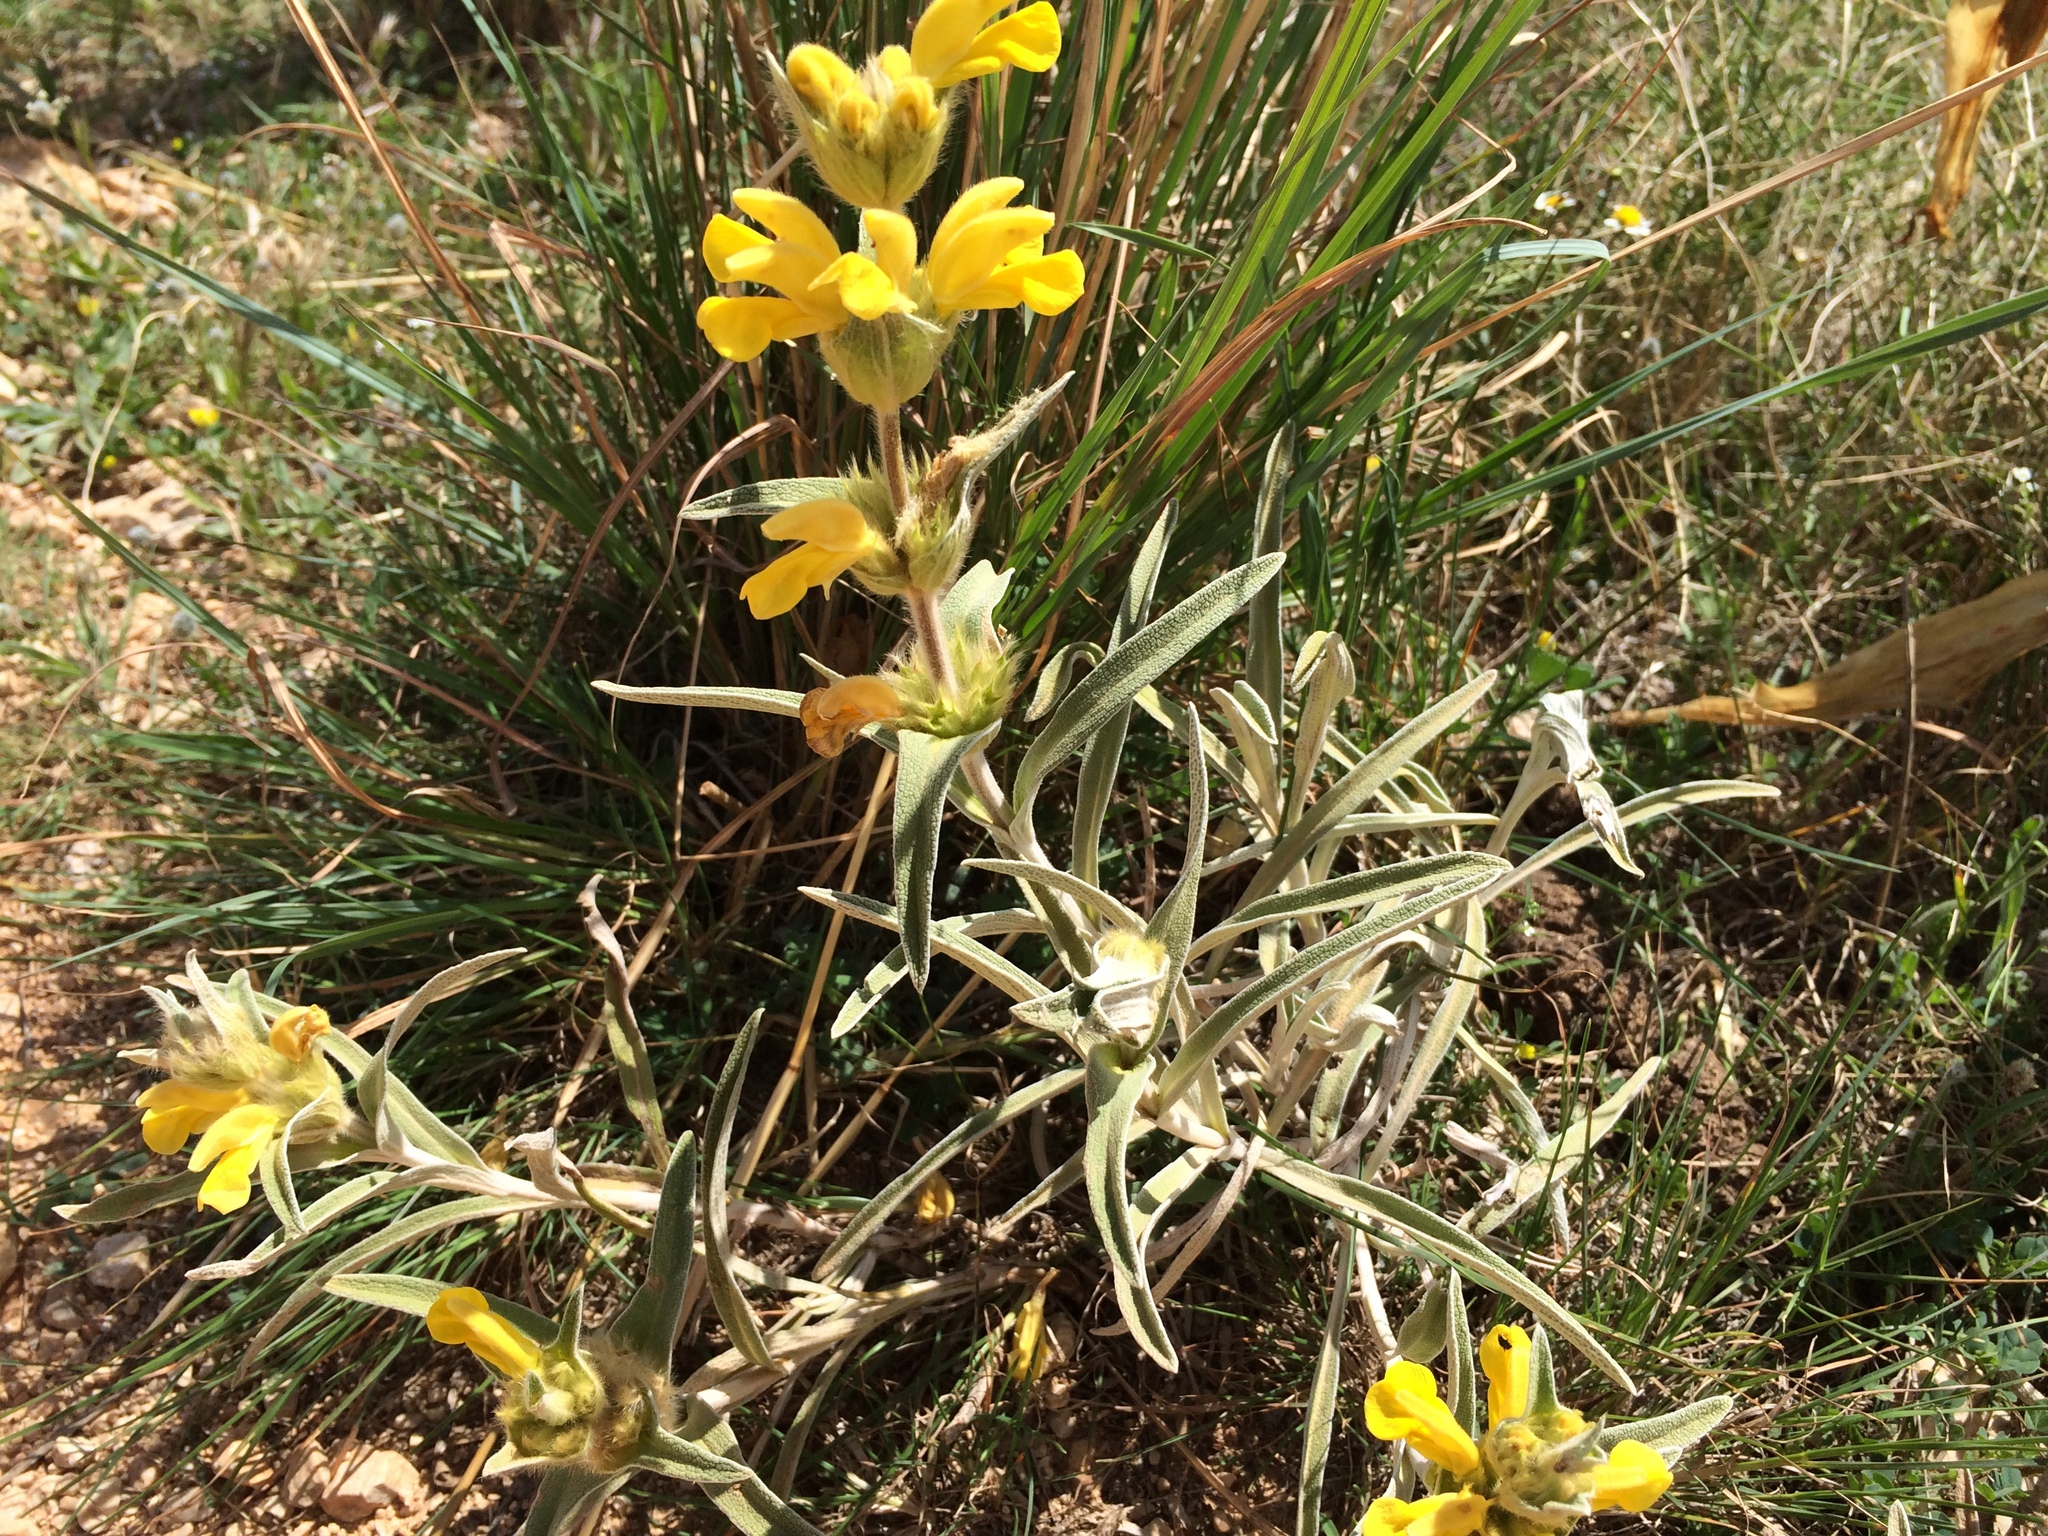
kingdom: Plantae
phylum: Tracheophyta
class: Magnoliopsida
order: Lamiales
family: Lamiaceae
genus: Phlomis
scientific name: Phlomis lychnitis
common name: Lampwickplant
